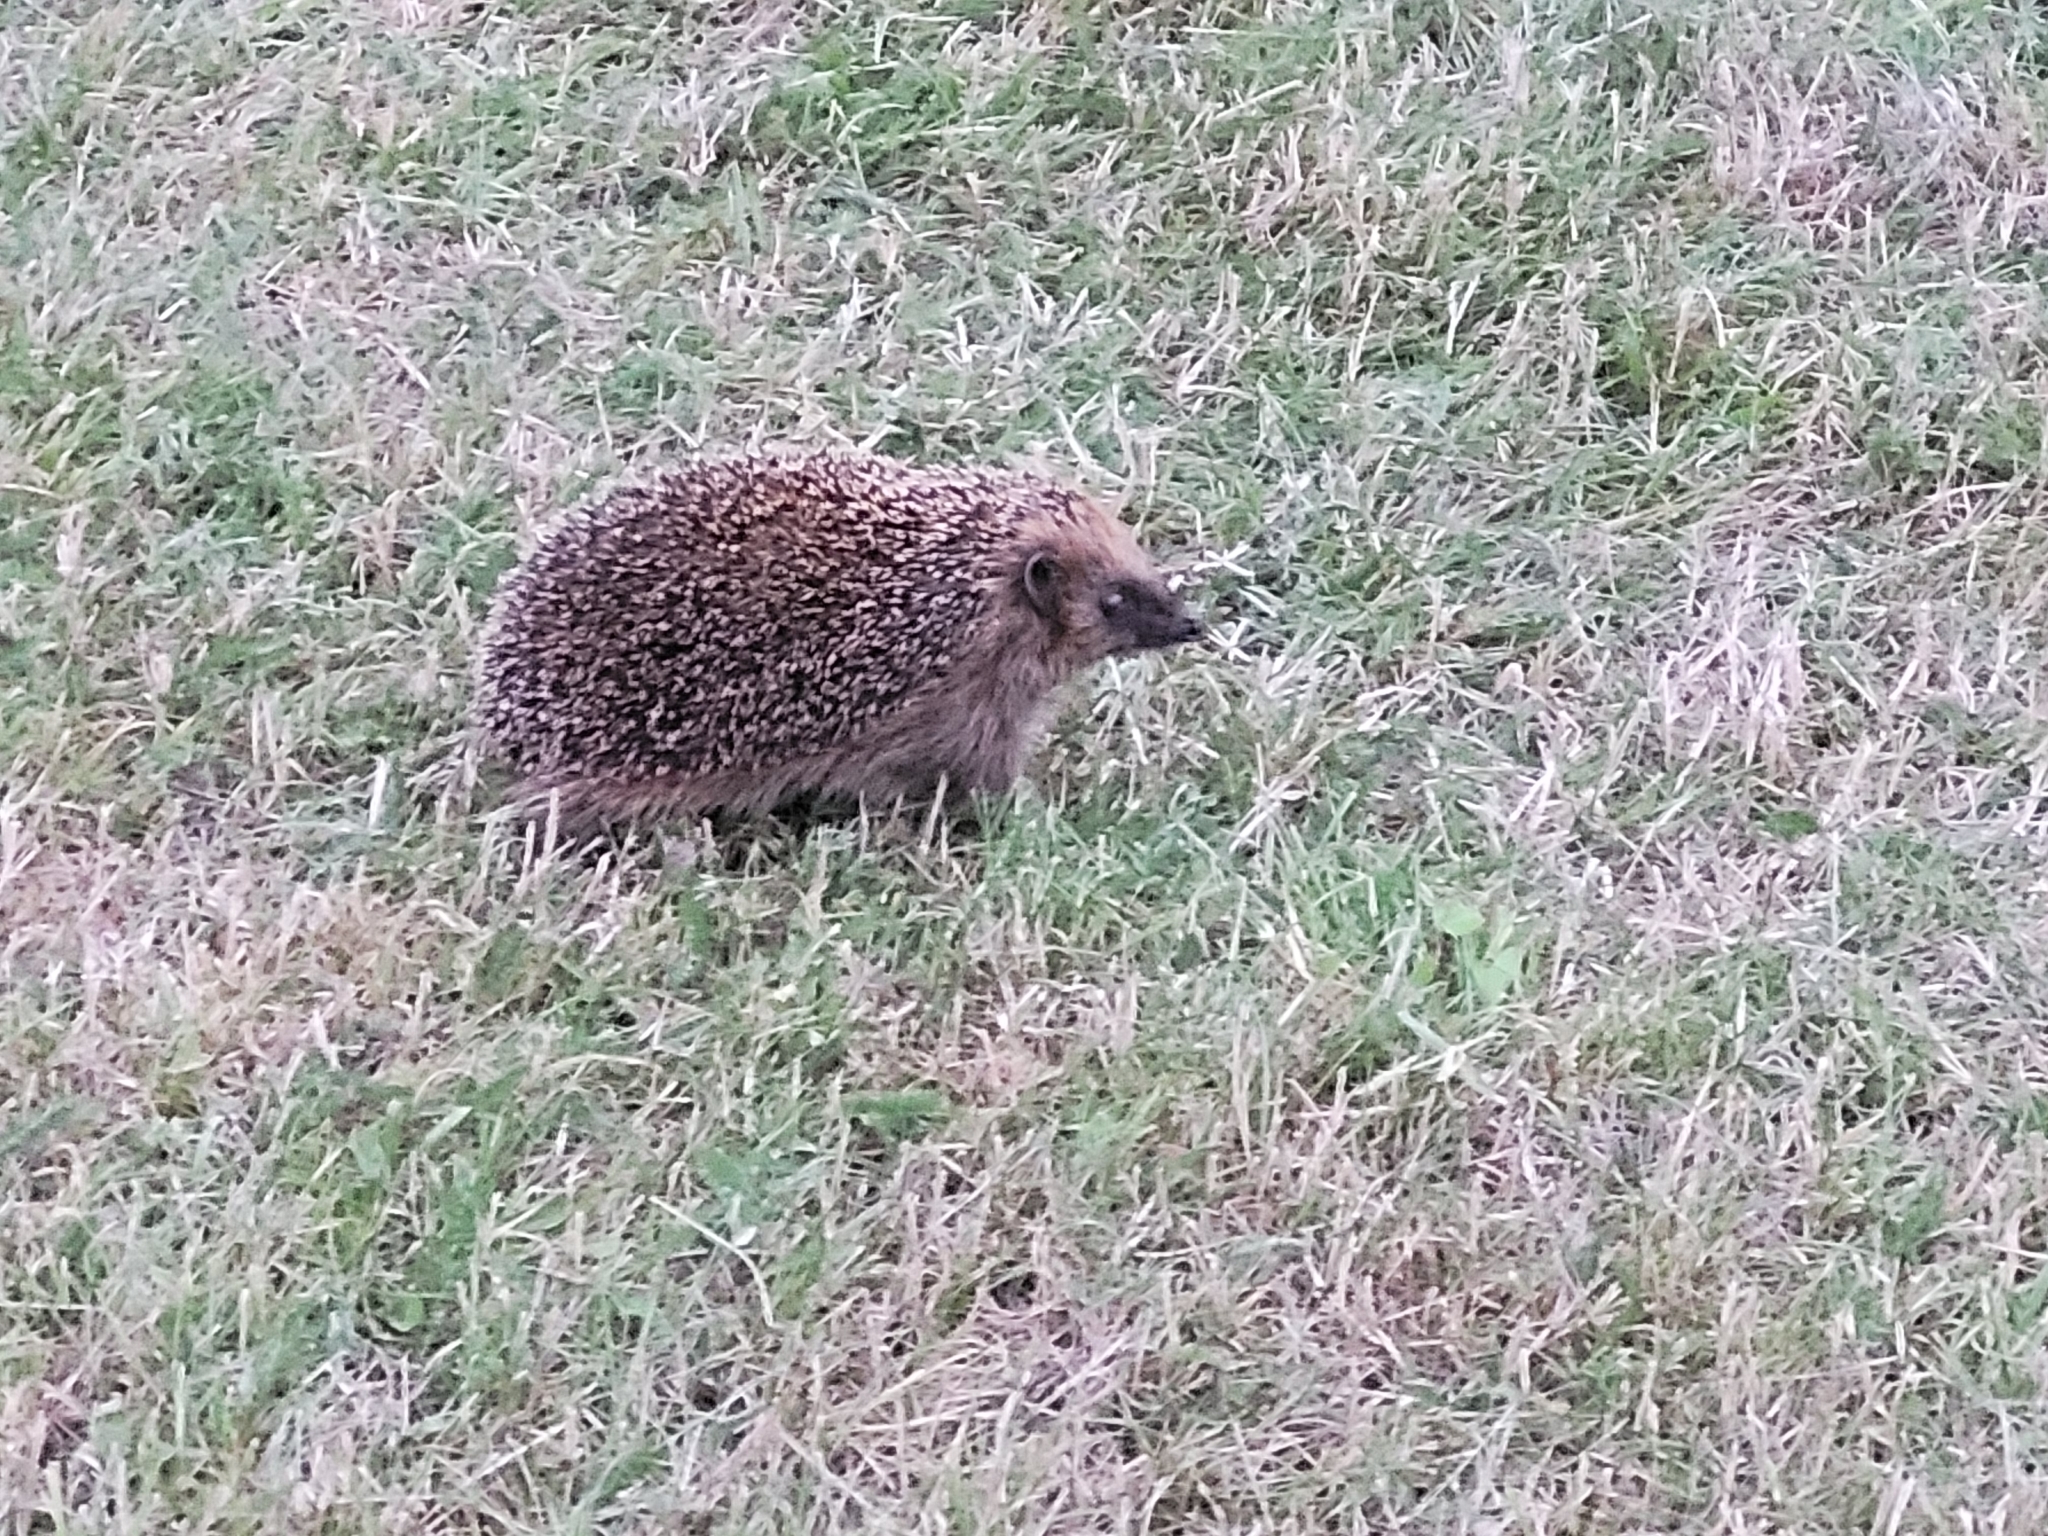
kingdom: Animalia
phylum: Chordata
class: Mammalia
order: Erinaceomorpha
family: Erinaceidae
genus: Erinaceus
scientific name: Erinaceus europaeus
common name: West european hedgehog
